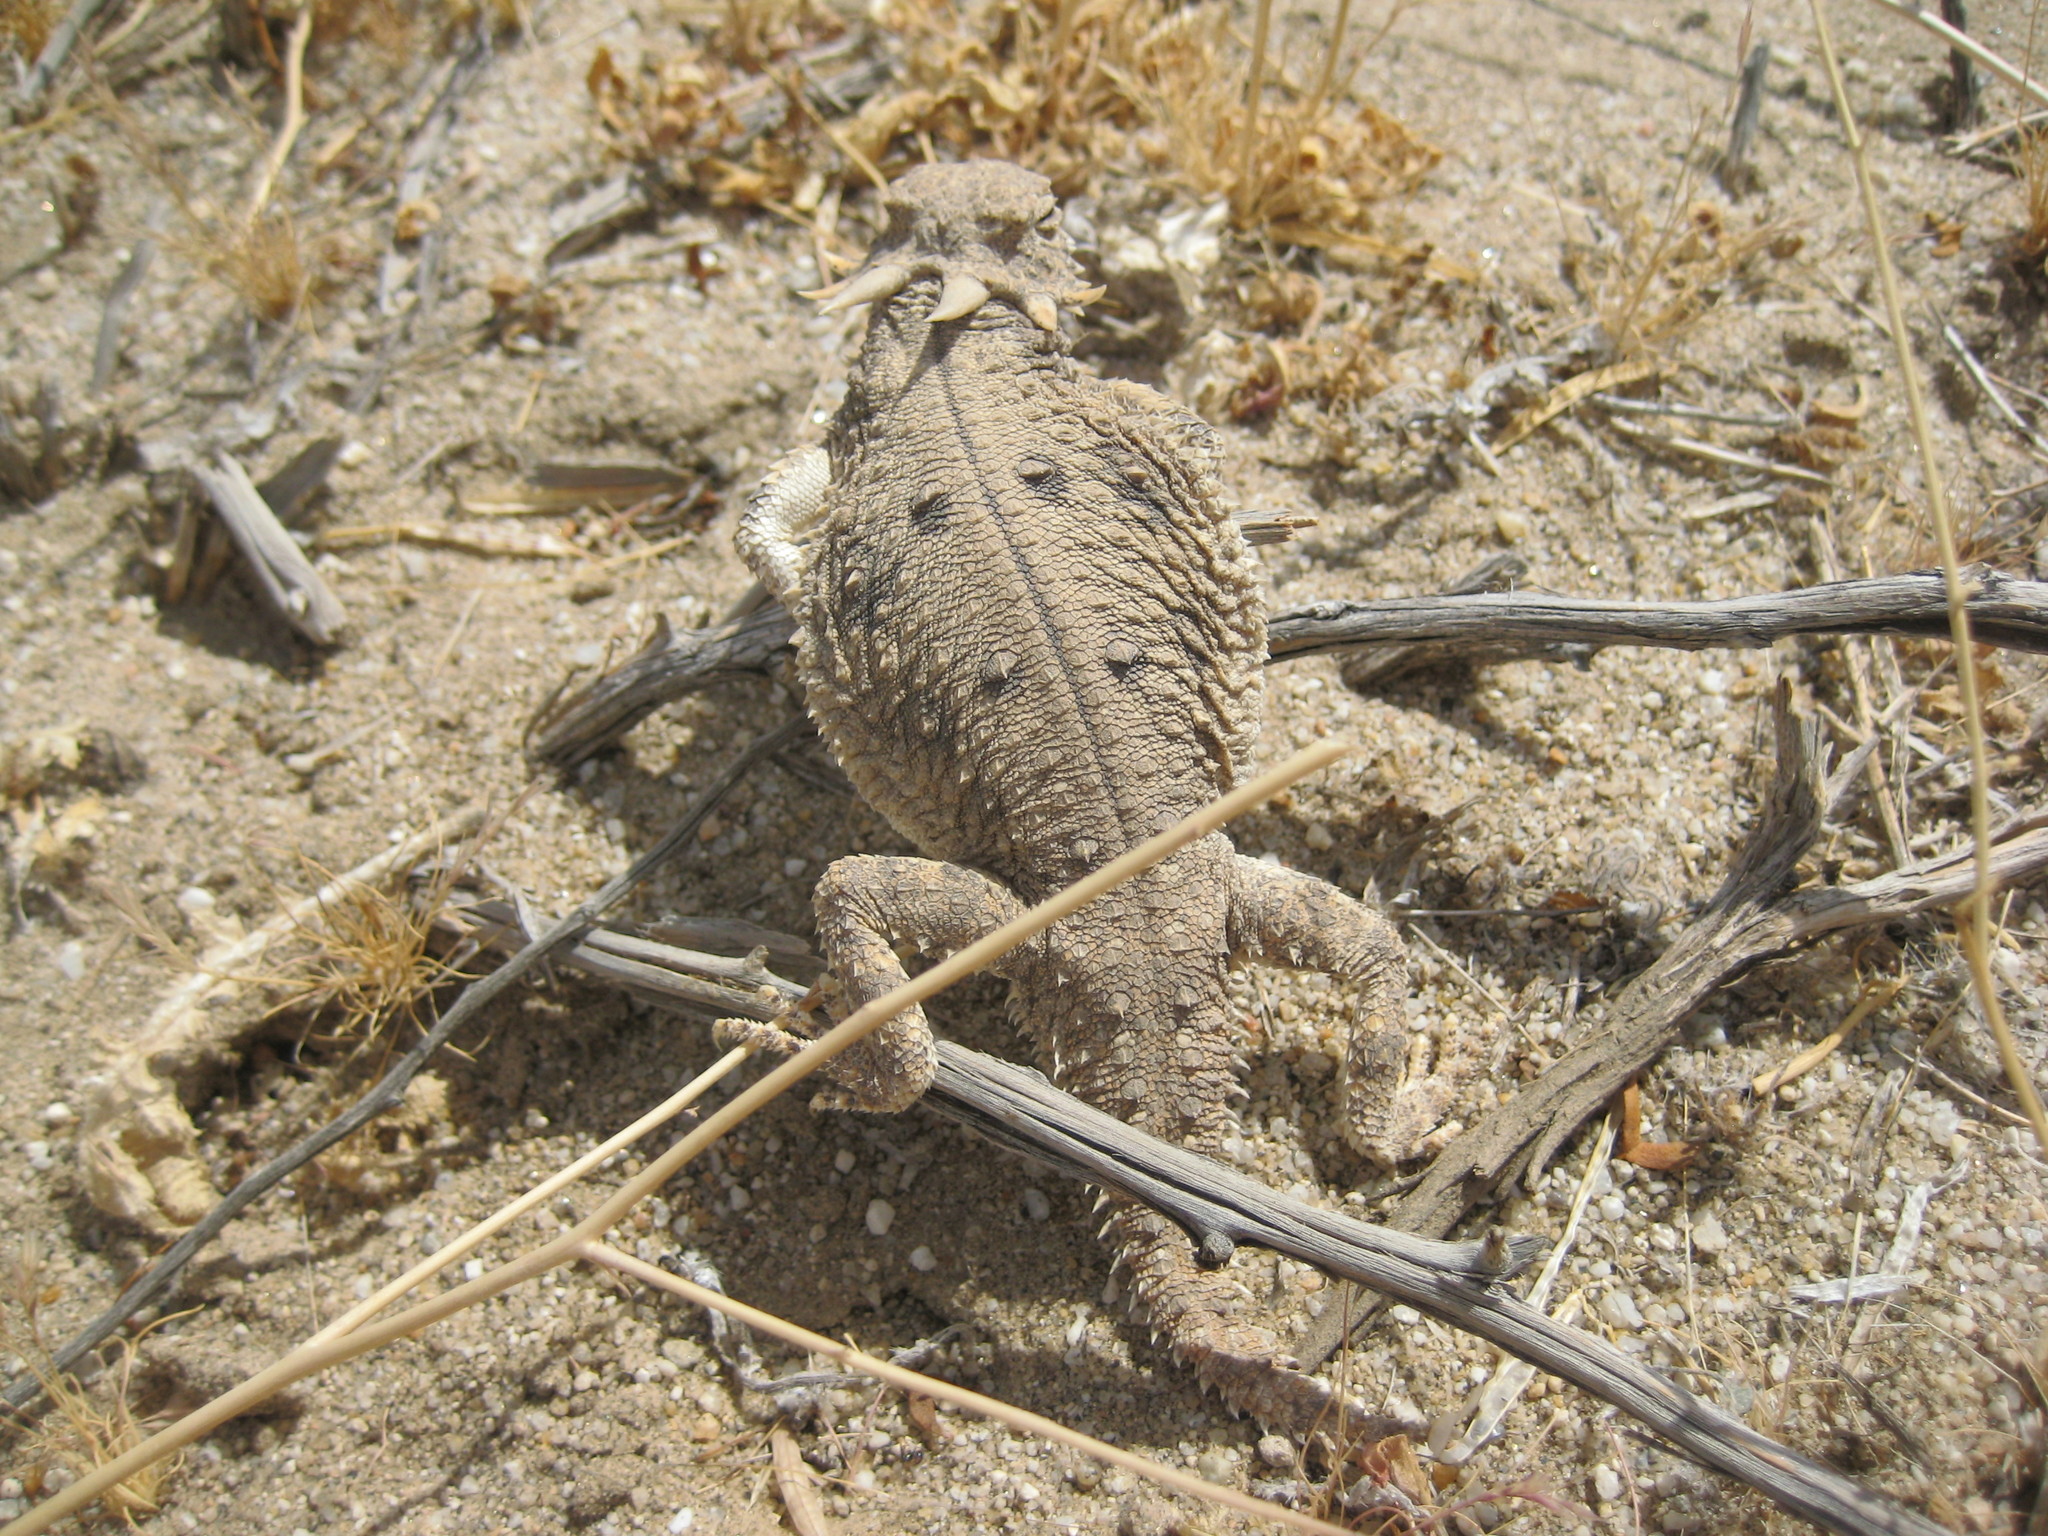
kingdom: Animalia
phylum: Chordata
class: Squamata
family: Phrynosomatidae
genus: Phrynosoma
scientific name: Phrynosoma mcallii
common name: Flat-tailed horned lizard
